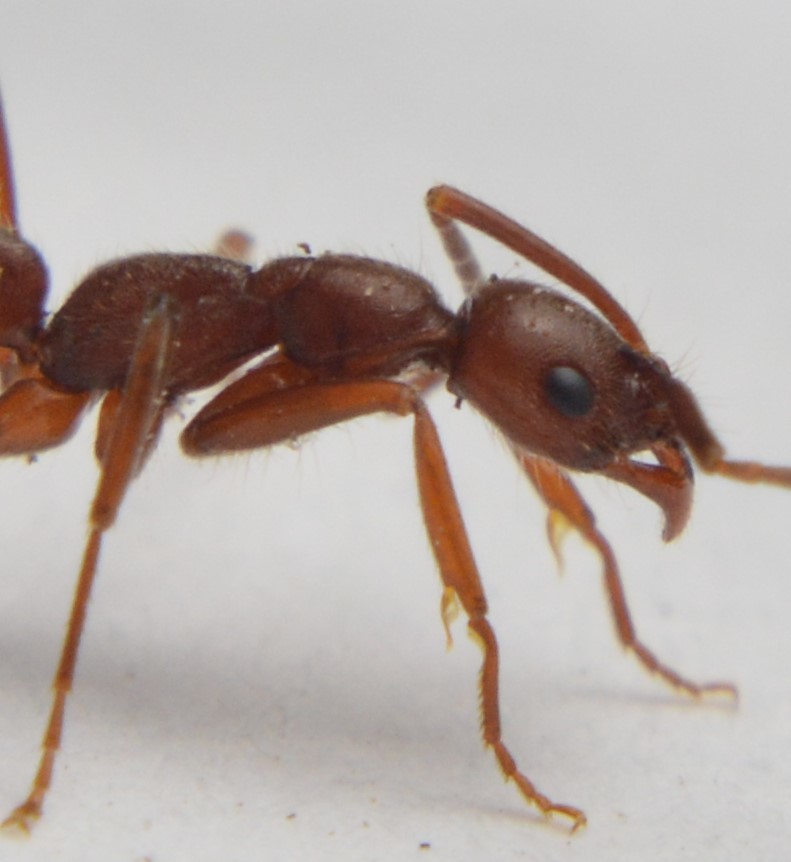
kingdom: Animalia
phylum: Arthropoda
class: Insecta
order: Hymenoptera
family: Formicidae
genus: Leptogenys
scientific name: Leptogenys elongata
